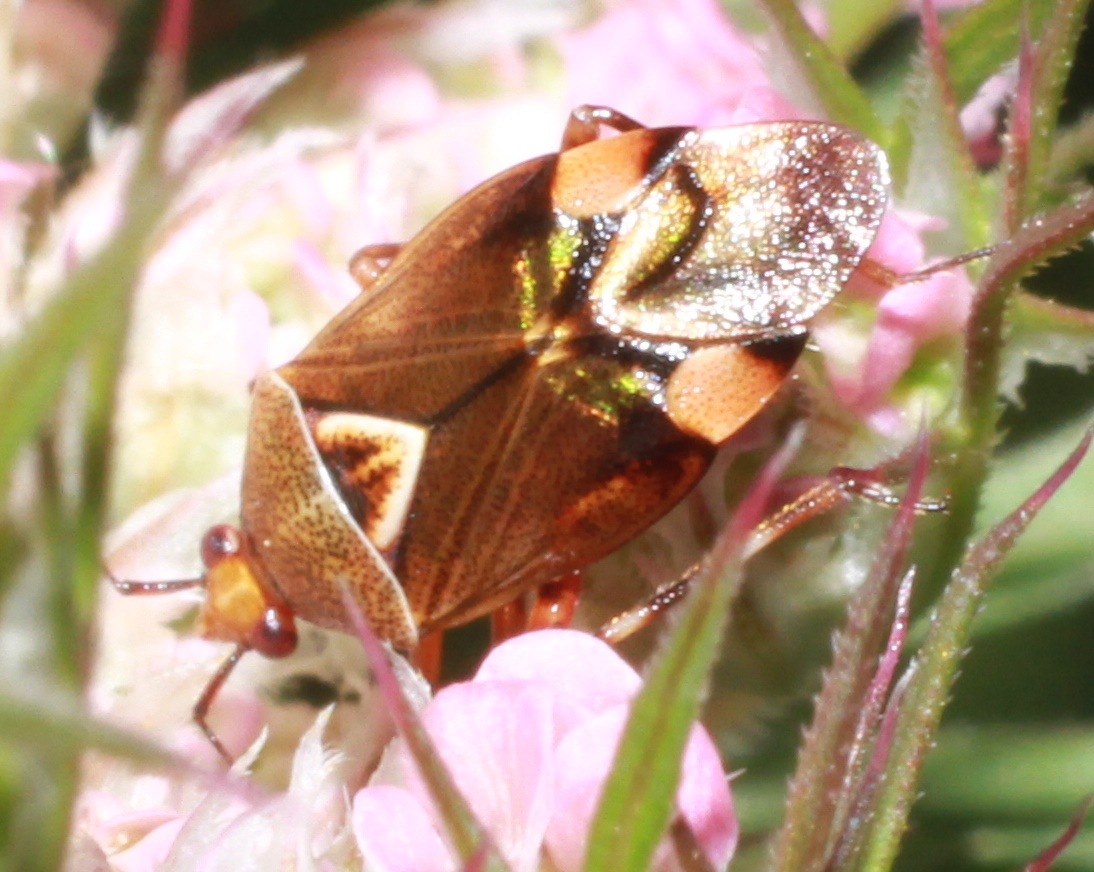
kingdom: Animalia
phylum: Arthropoda
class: Insecta
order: Hemiptera
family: Miridae
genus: Deraeocoris
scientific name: Deraeocoris flavilinea
